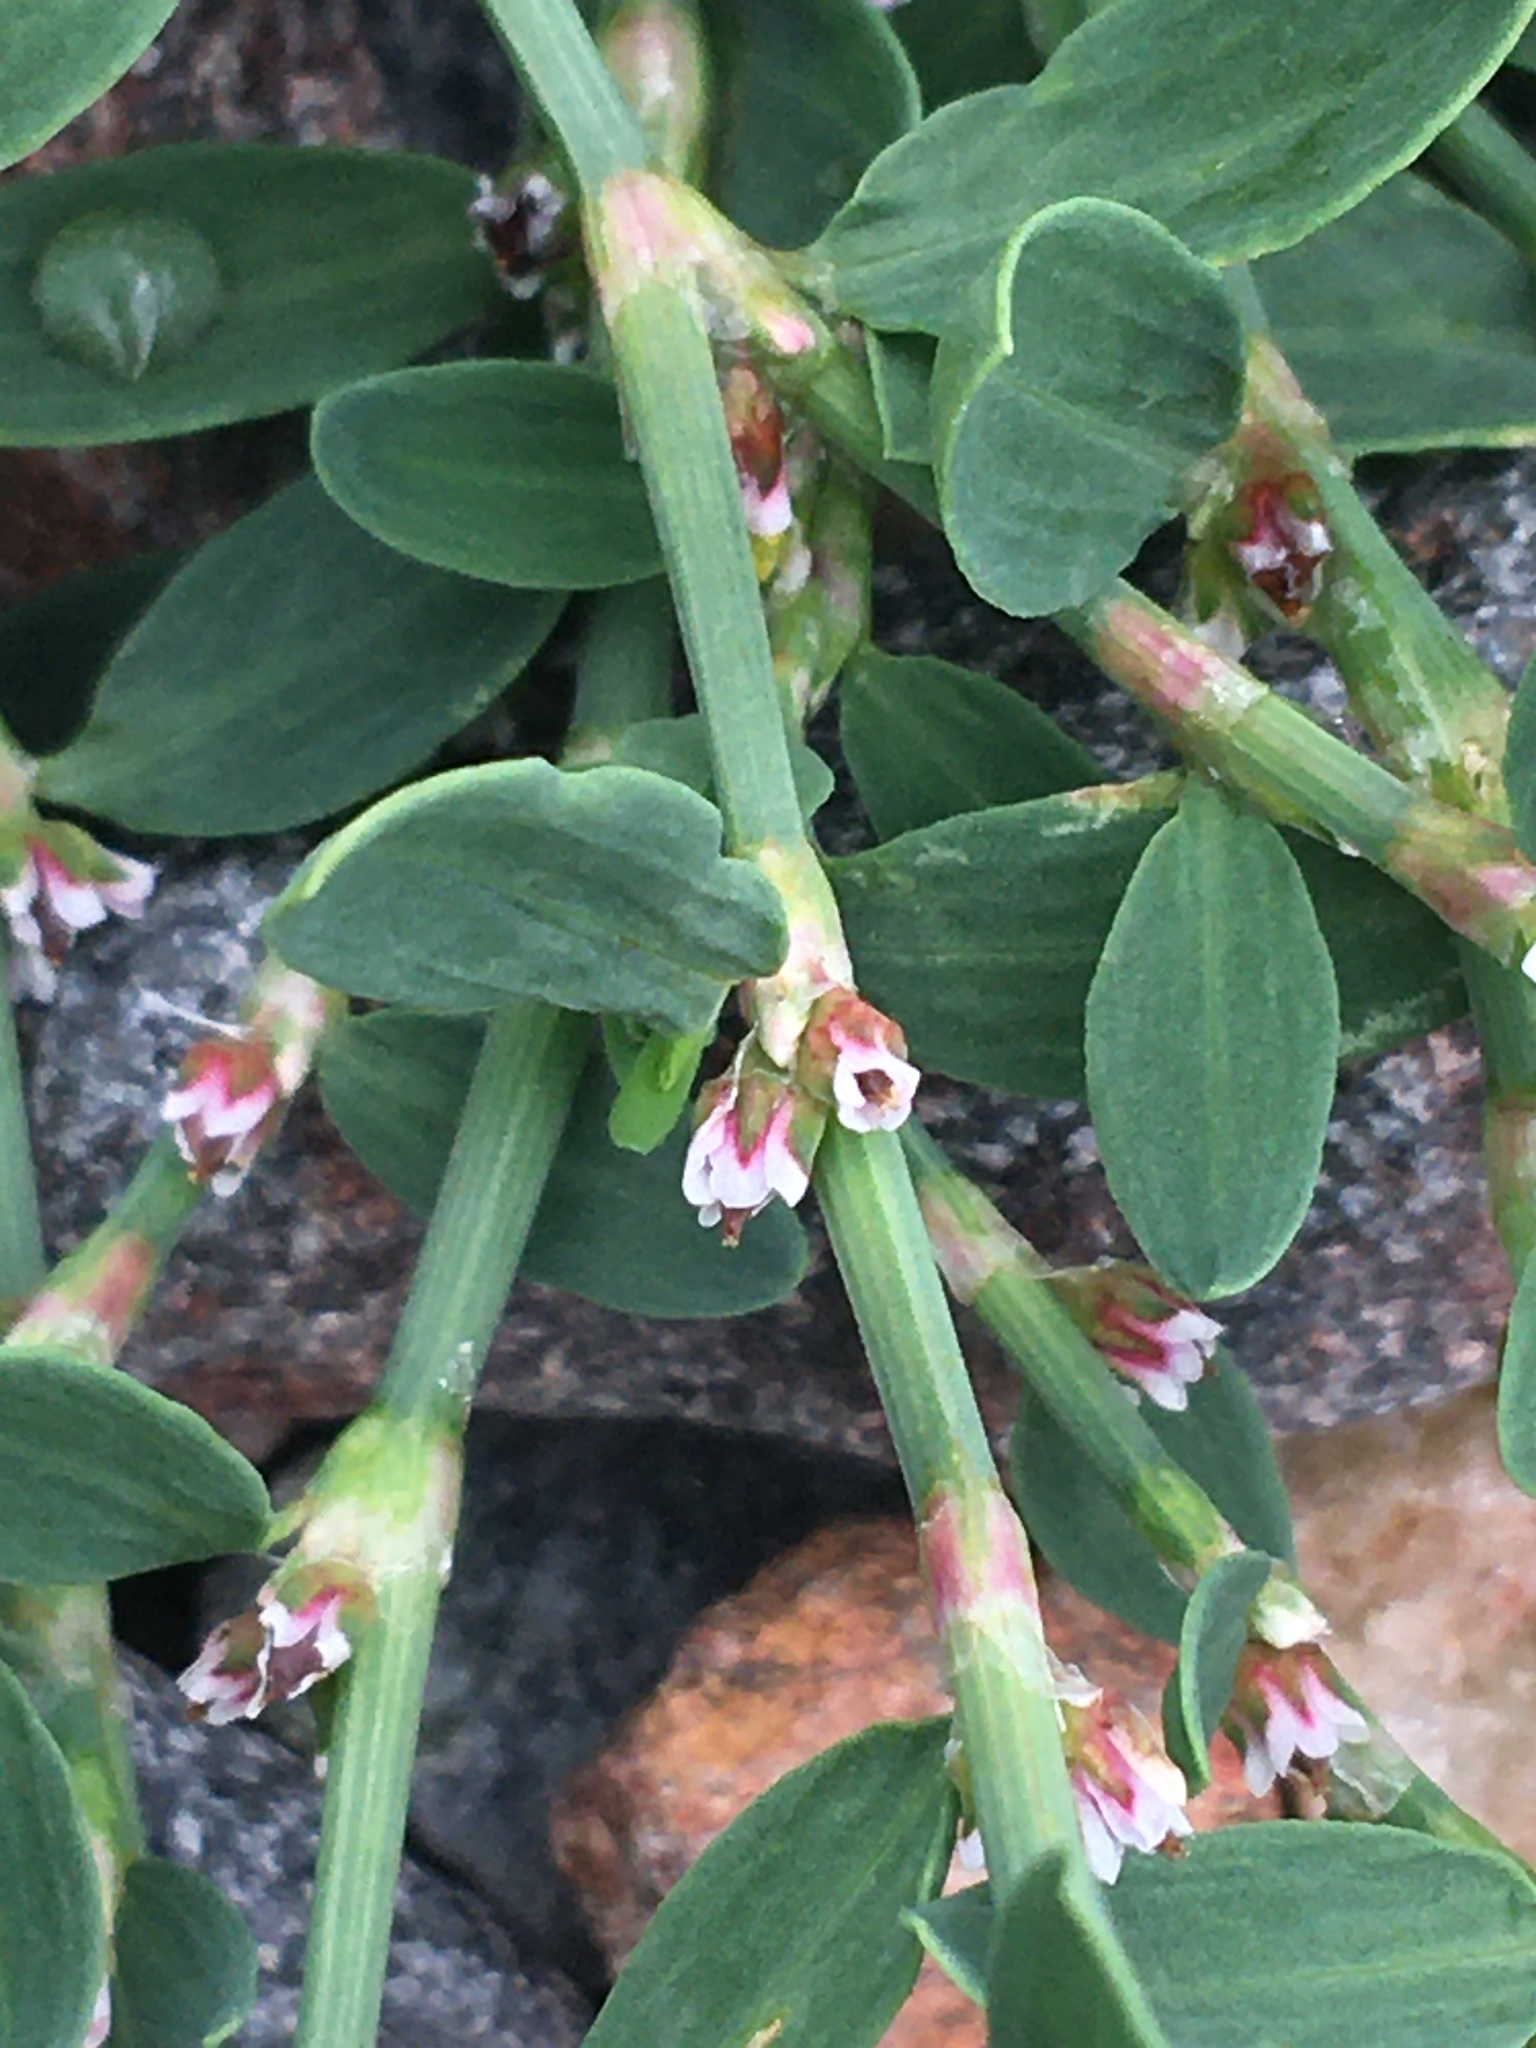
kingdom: Plantae
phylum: Tracheophyta
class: Magnoliopsida
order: Caryophyllales
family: Polygonaceae
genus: Polygonum
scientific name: Polygonum aviculare
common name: Prostrate knotweed
